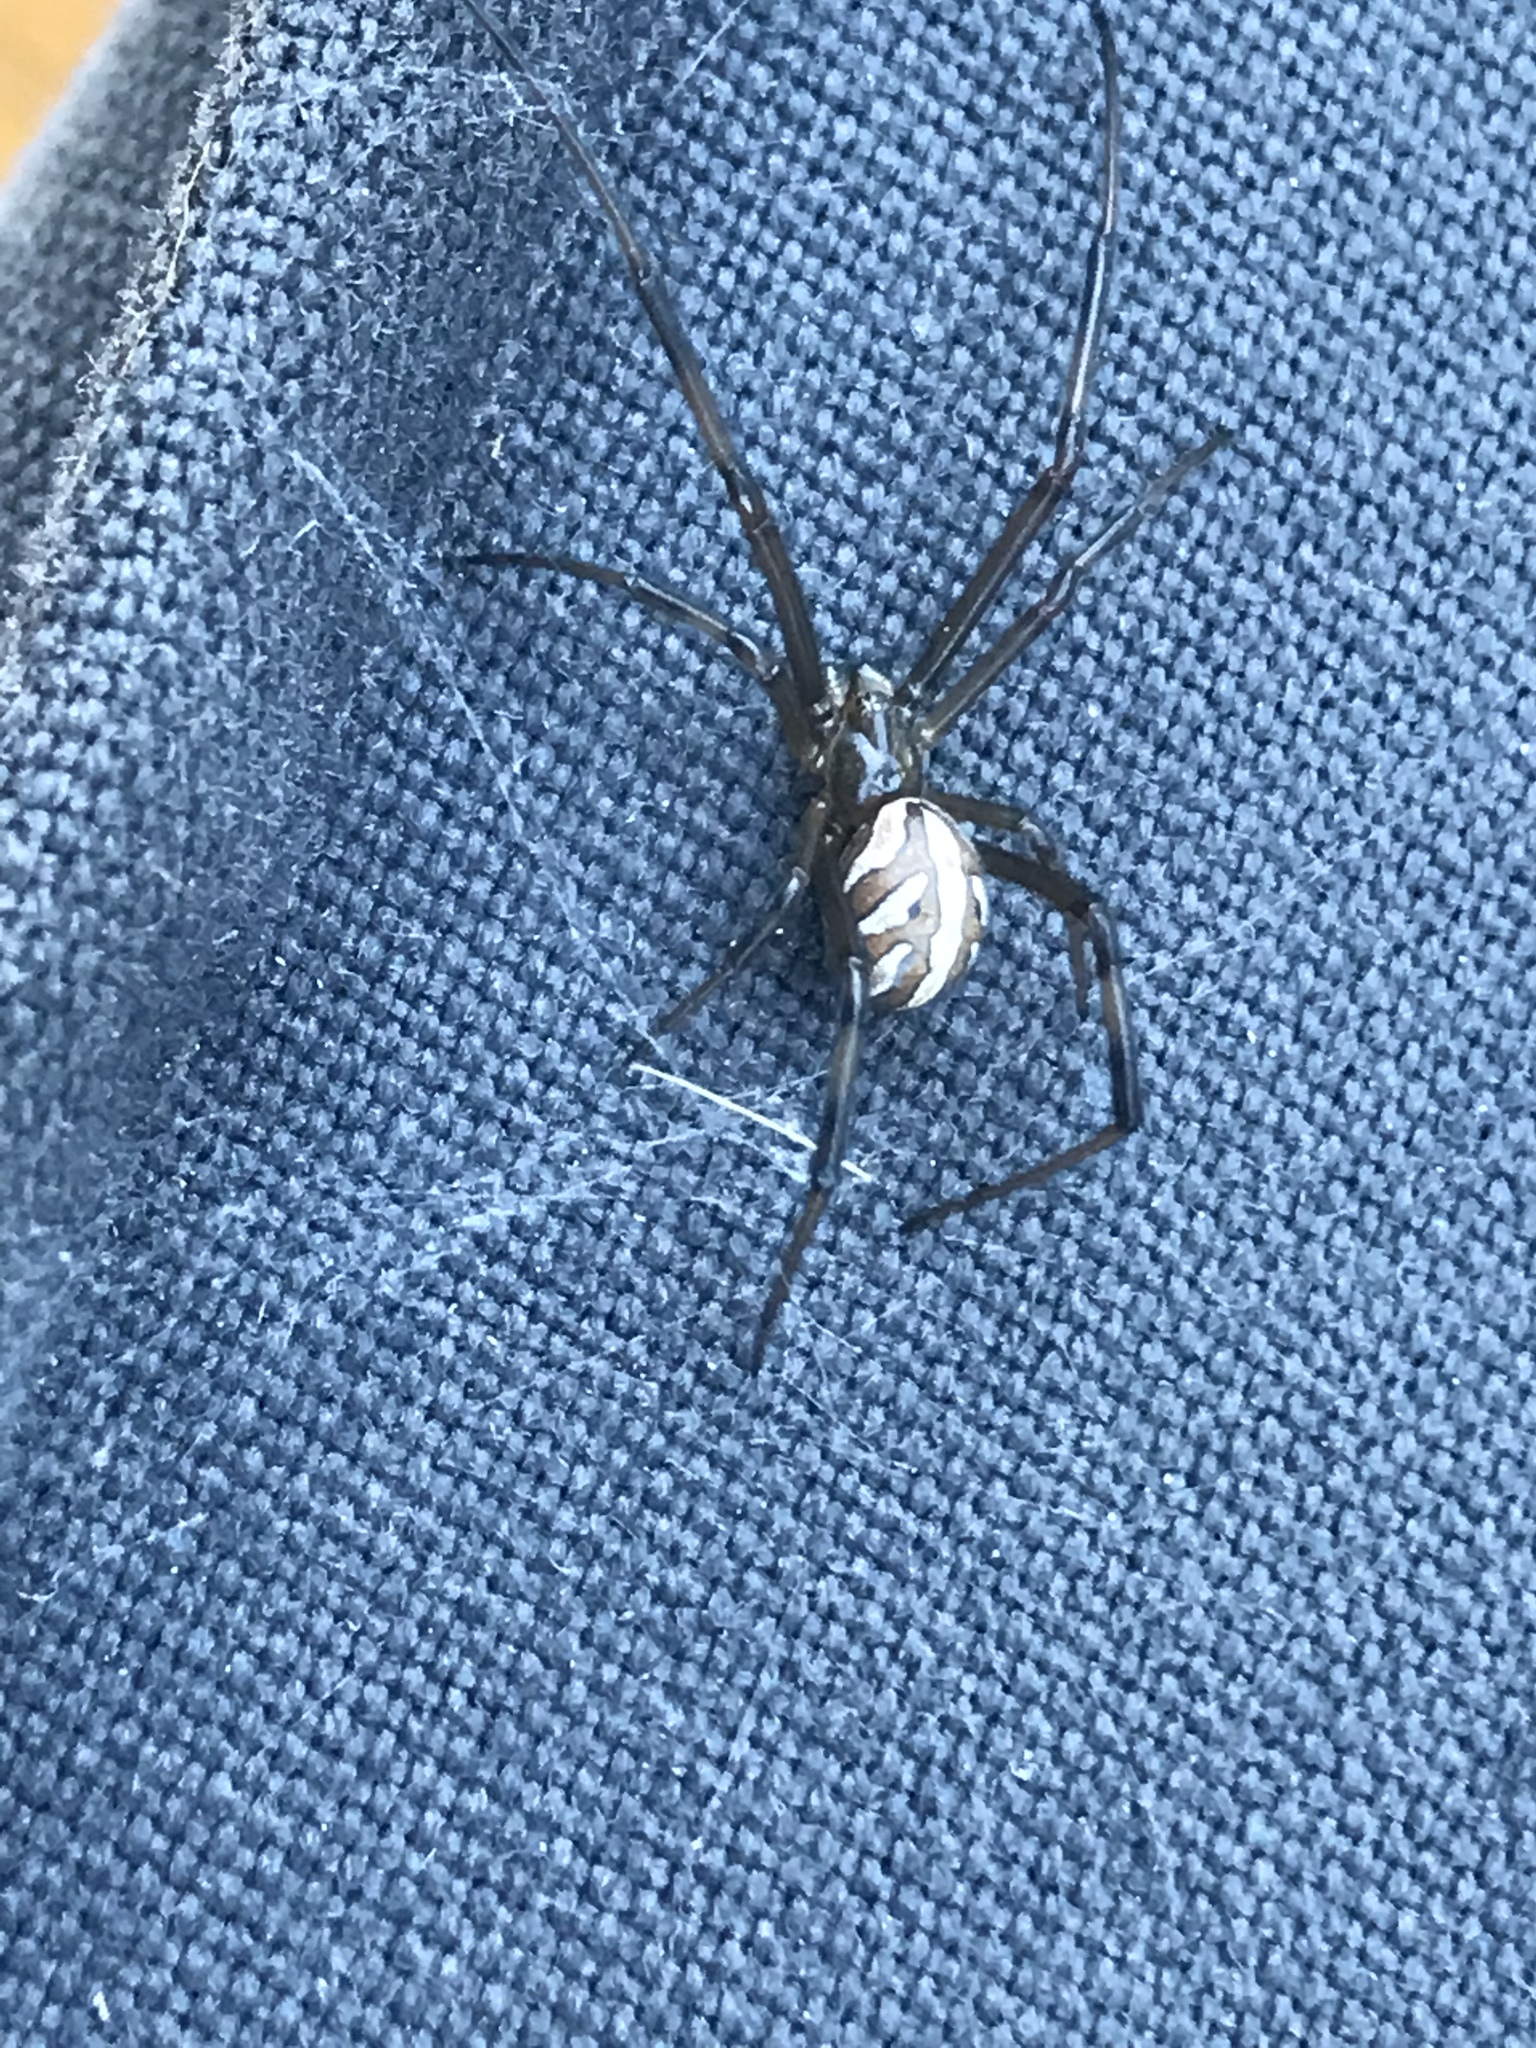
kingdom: Animalia
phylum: Arthropoda
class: Arachnida
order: Araneae
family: Theridiidae
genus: Latrodectus
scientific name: Latrodectus hesperus
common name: Western black widow
